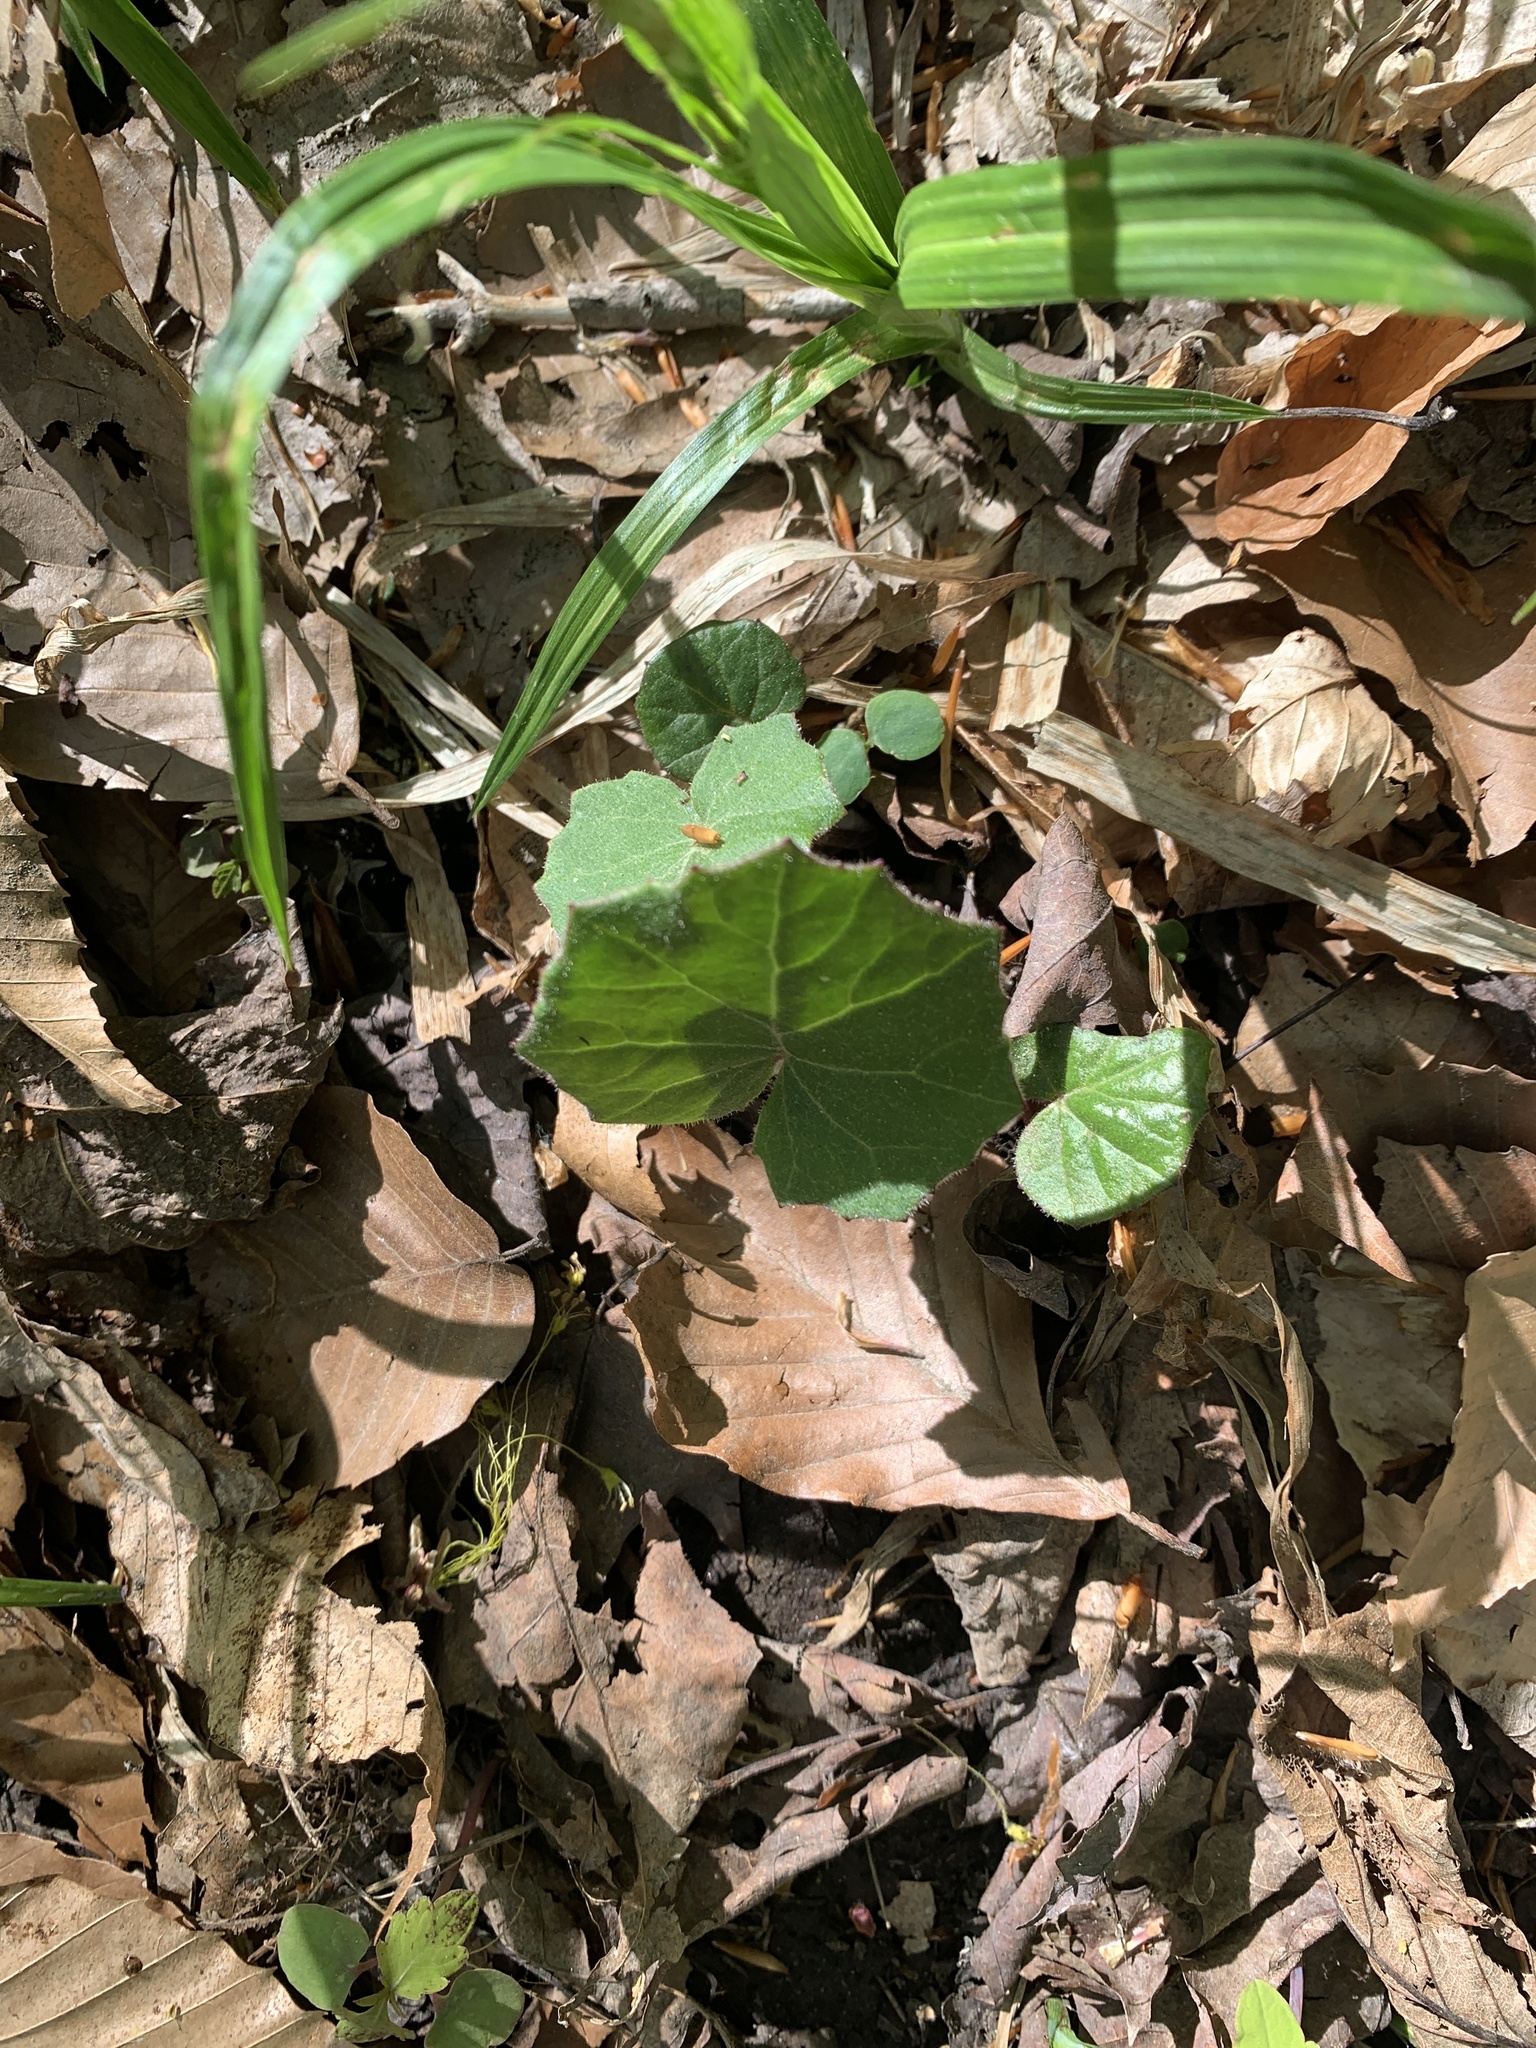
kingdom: Plantae
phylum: Tracheophyta
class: Magnoliopsida
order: Asterales
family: Asteraceae
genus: Tussilago
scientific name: Tussilago farfara
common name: Coltsfoot
